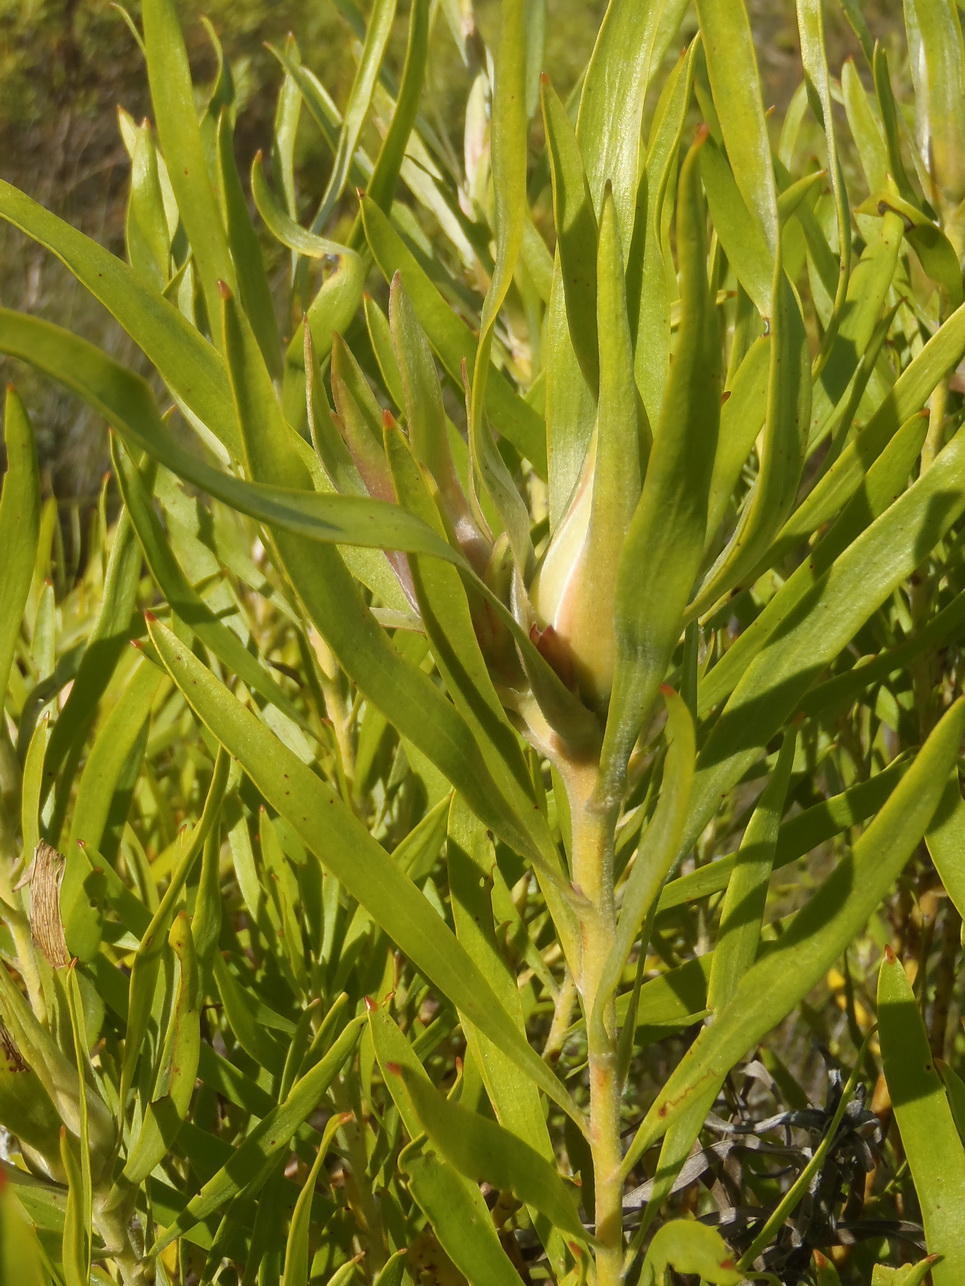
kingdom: Plantae
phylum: Tracheophyta
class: Magnoliopsida
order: Proteales
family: Proteaceae
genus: Leucadendron
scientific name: Leucadendron eucalyptifolium
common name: Gum-leaved conebush
